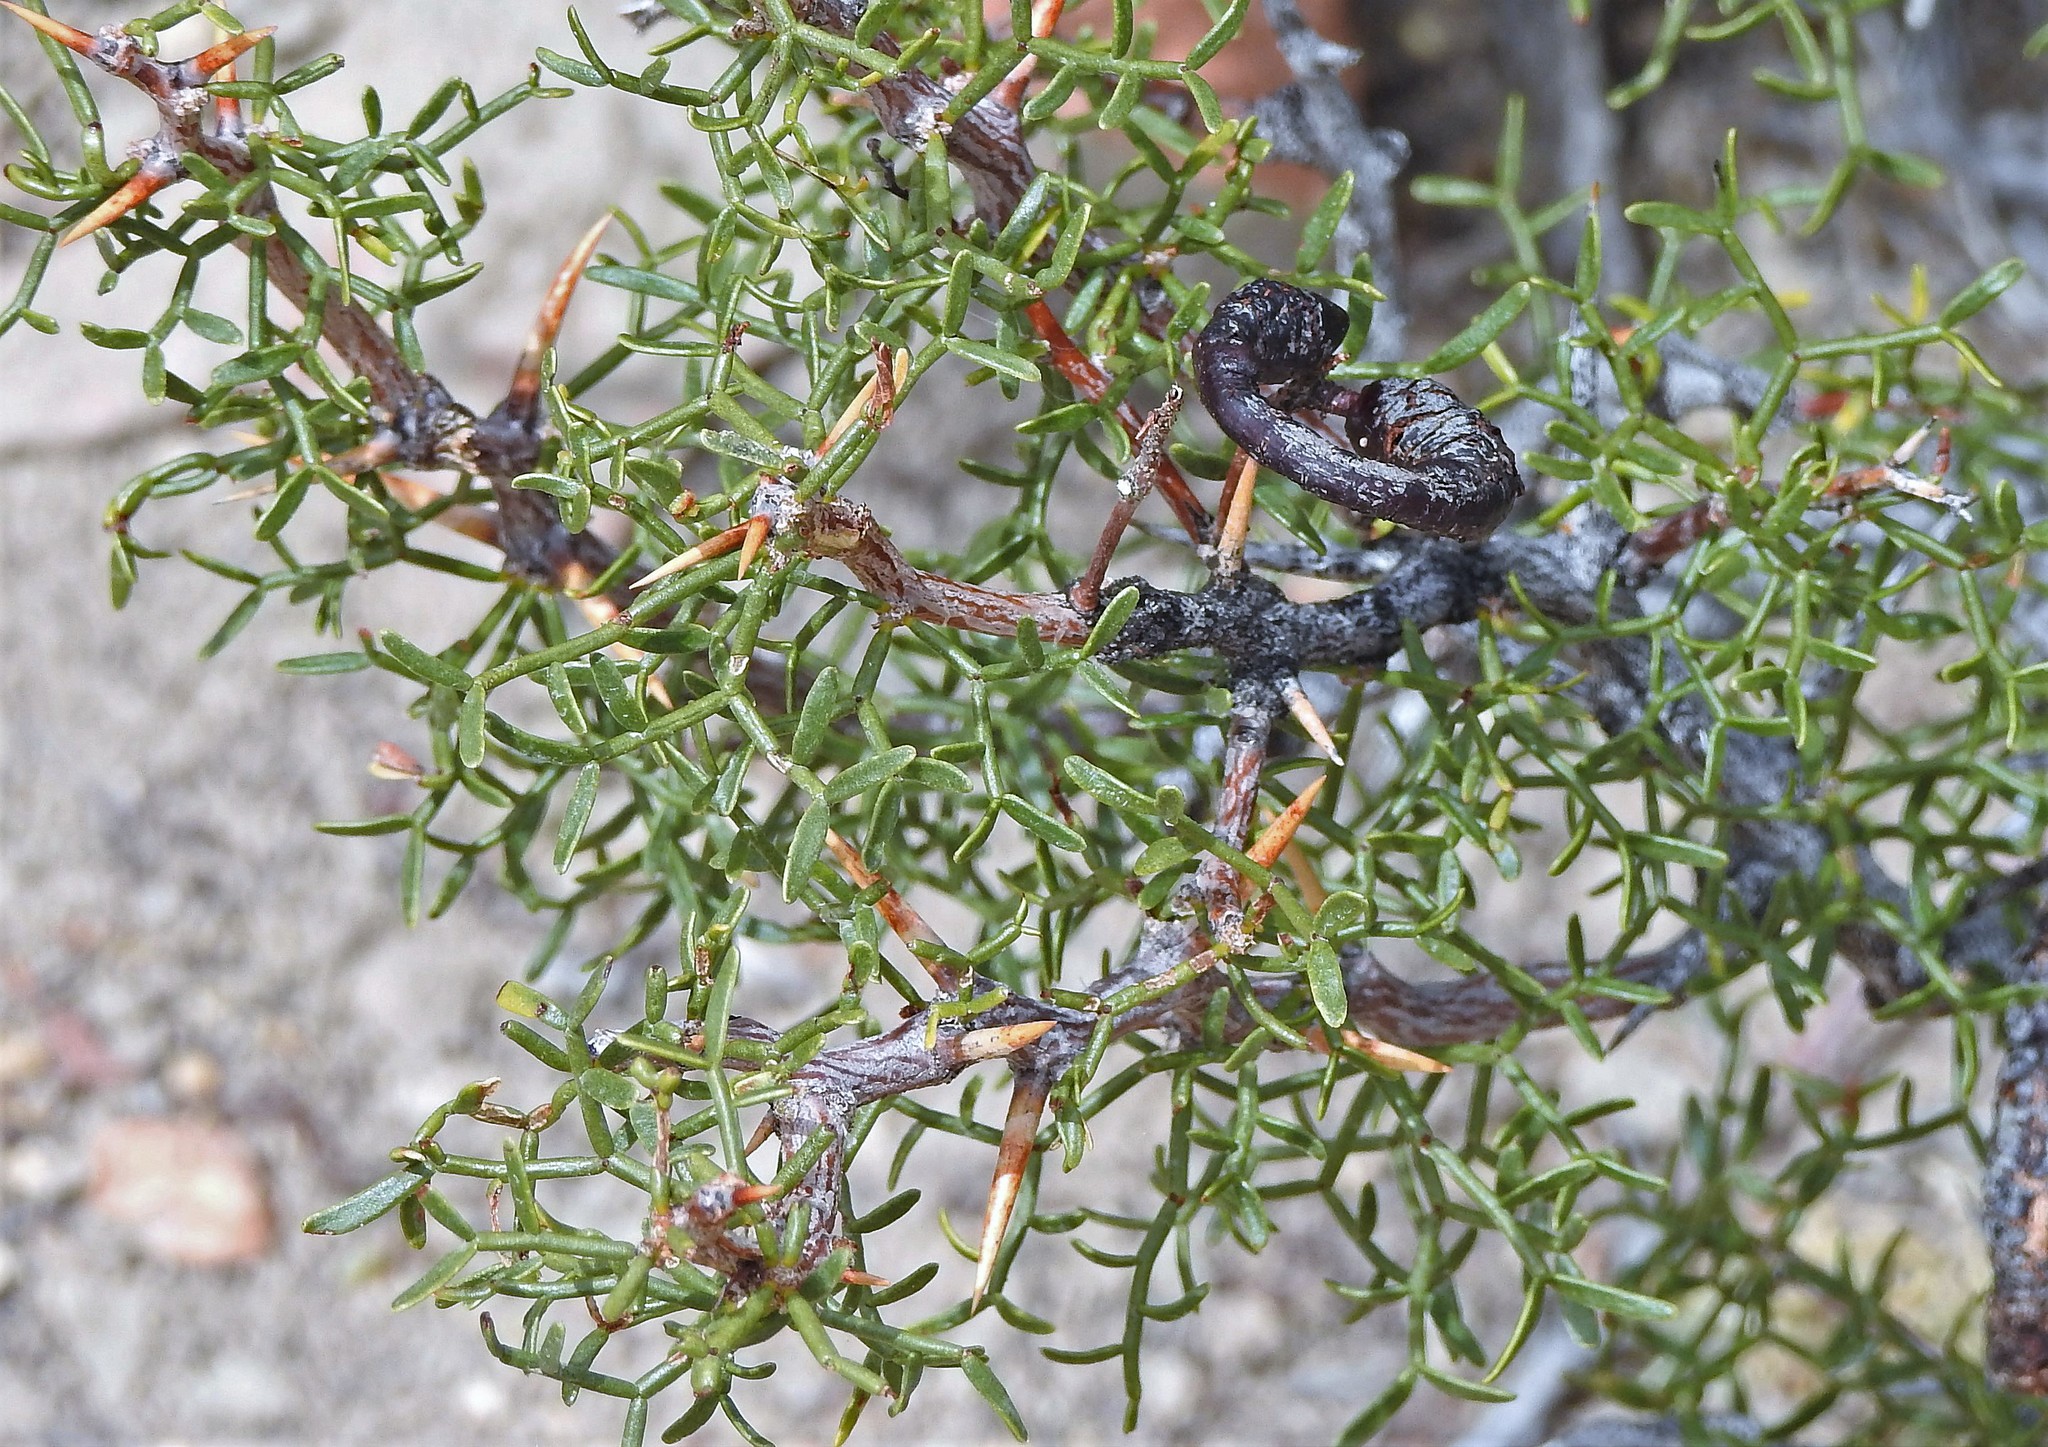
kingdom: Plantae
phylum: Tracheophyta
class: Magnoliopsida
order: Fabales
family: Fabaceae
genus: Prosopis
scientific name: Prosopis denudans
